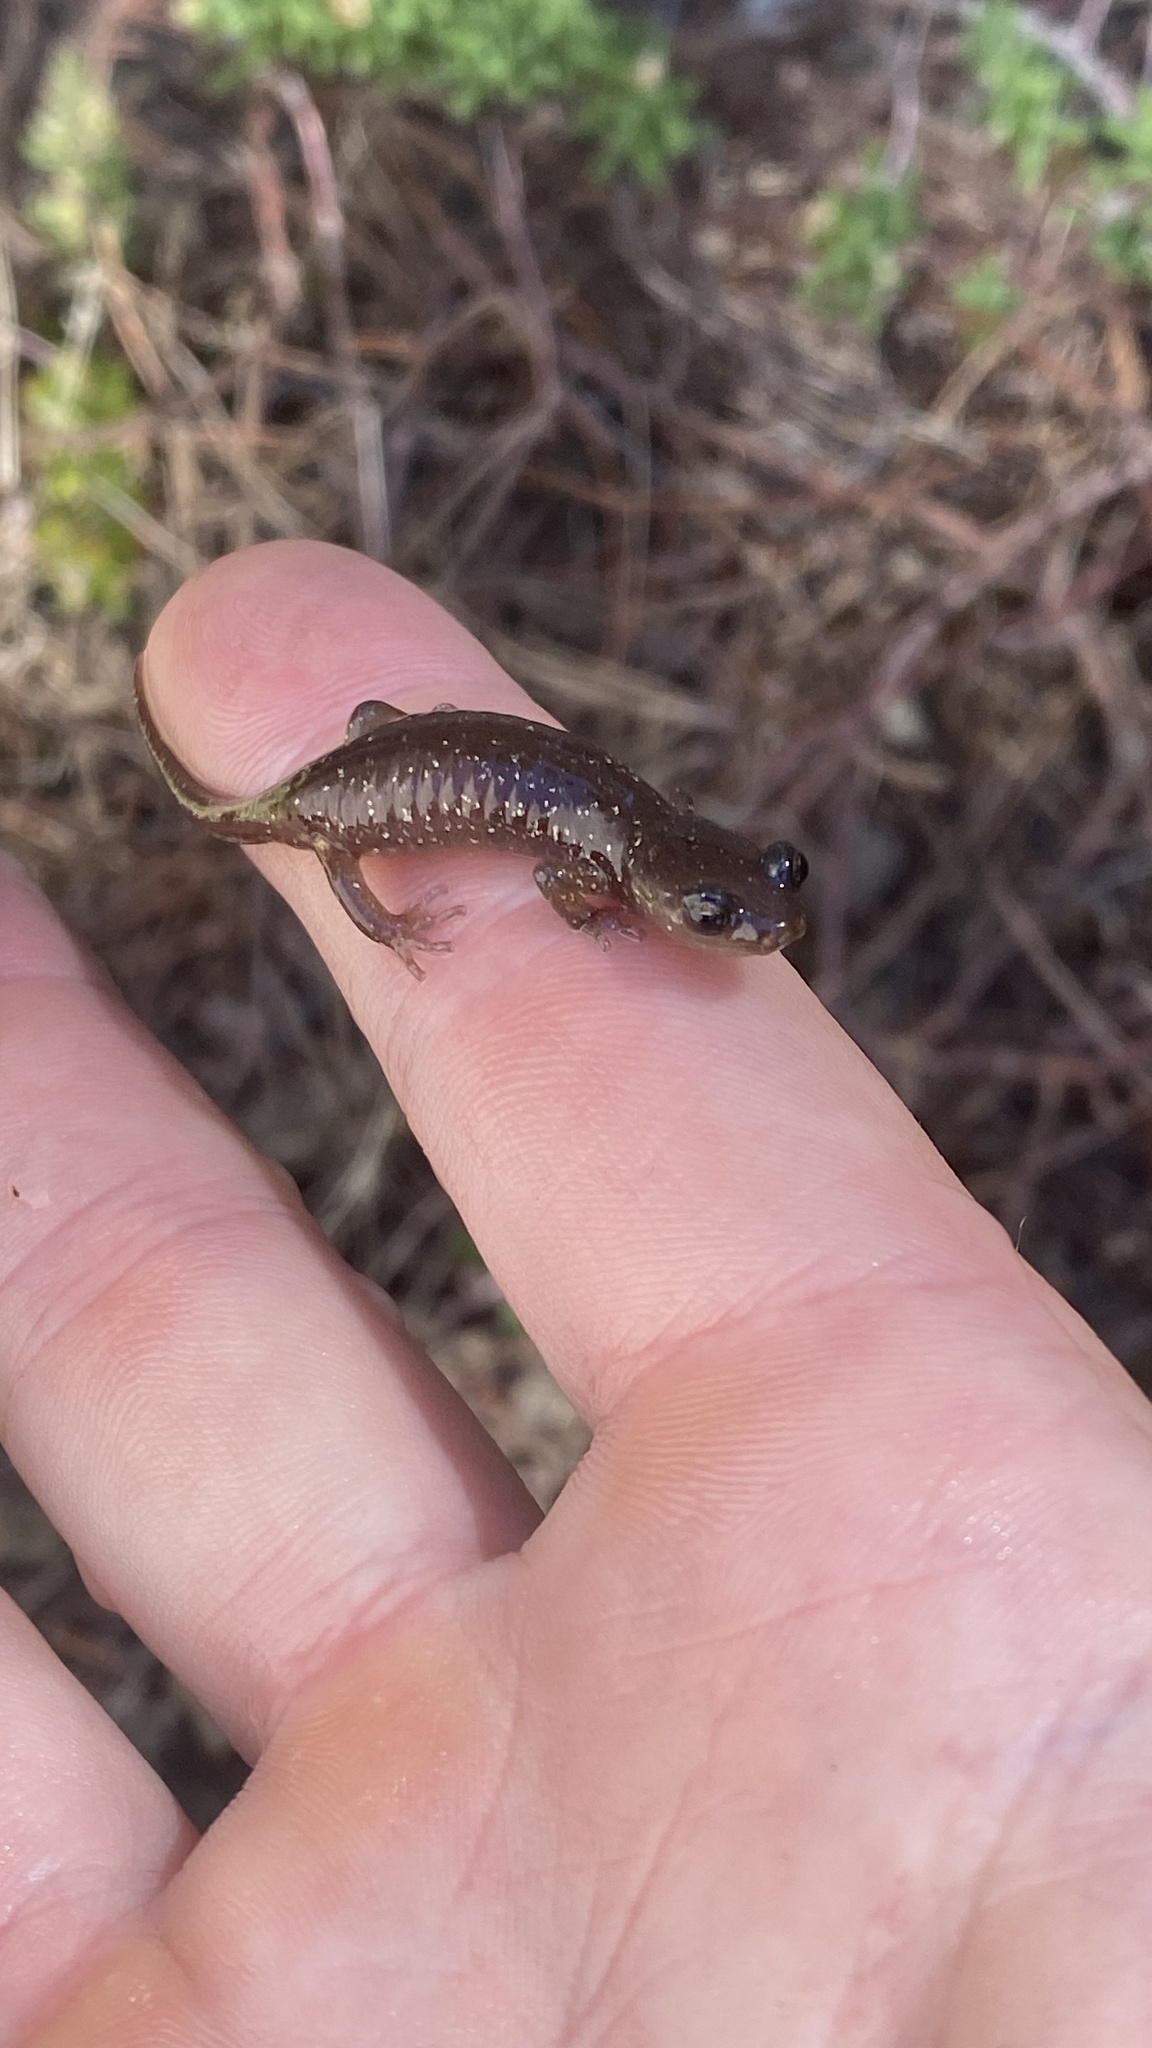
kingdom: Animalia
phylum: Chordata
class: Amphibia
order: Caudata
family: Plethodontidae
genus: Aneides
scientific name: Aneides lugubris
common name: Arboreal salamander
